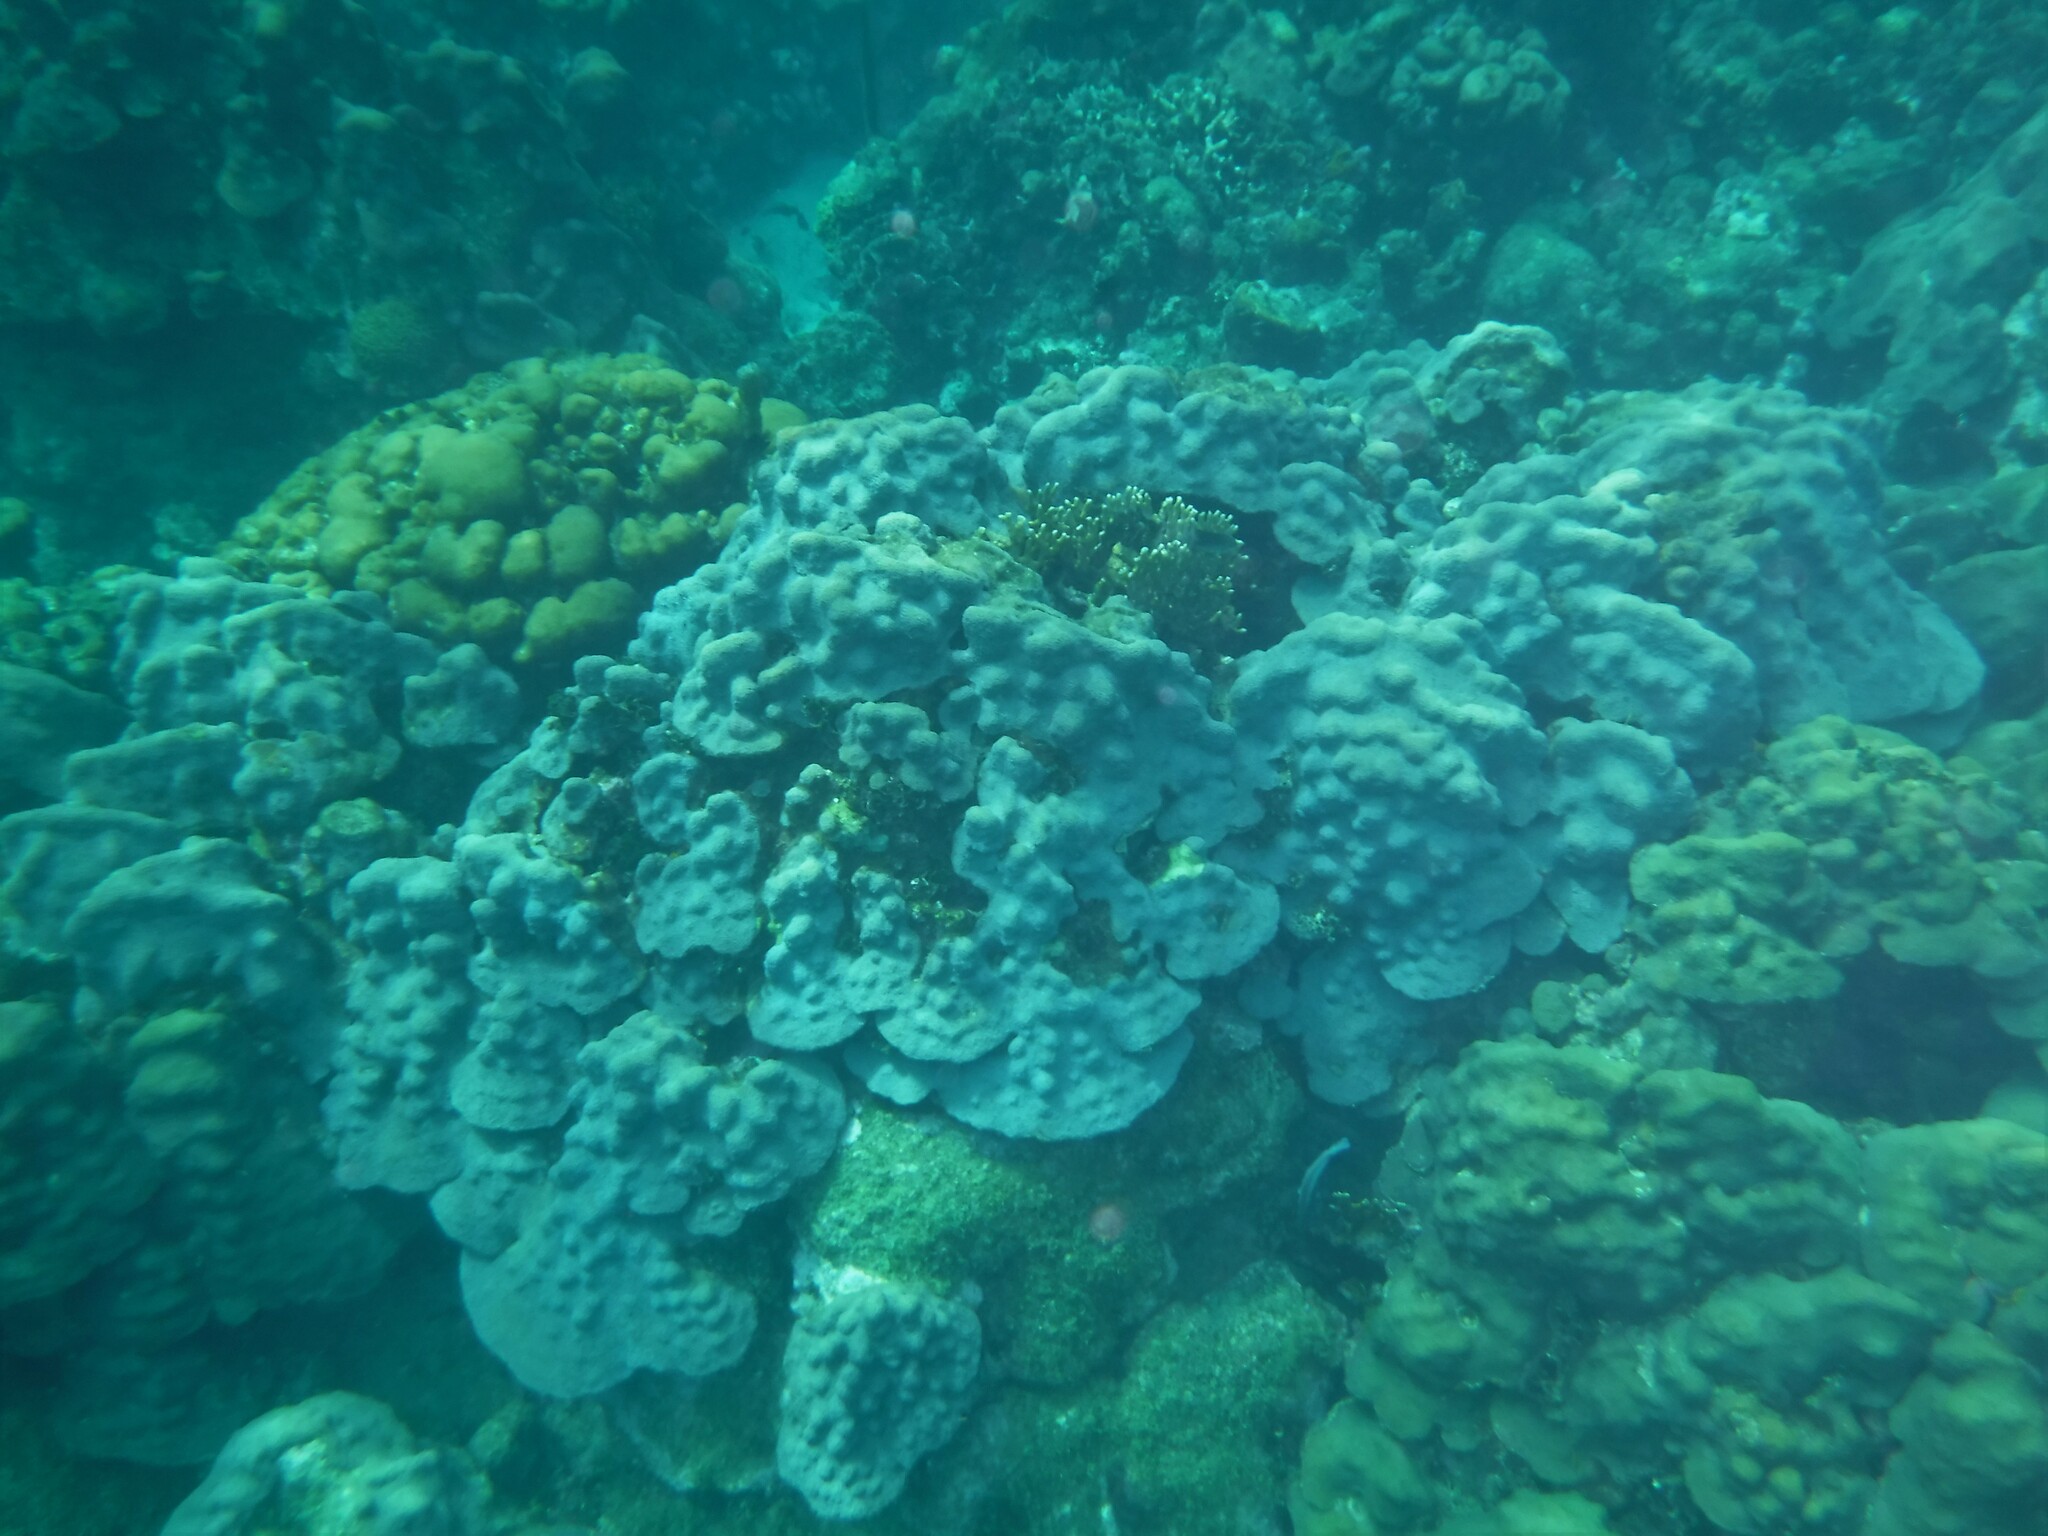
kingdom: Animalia
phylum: Cnidaria
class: Anthozoa
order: Scleractinia
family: Merulinidae
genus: Orbicella
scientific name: Orbicella faveolata
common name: Mountainous star coral
